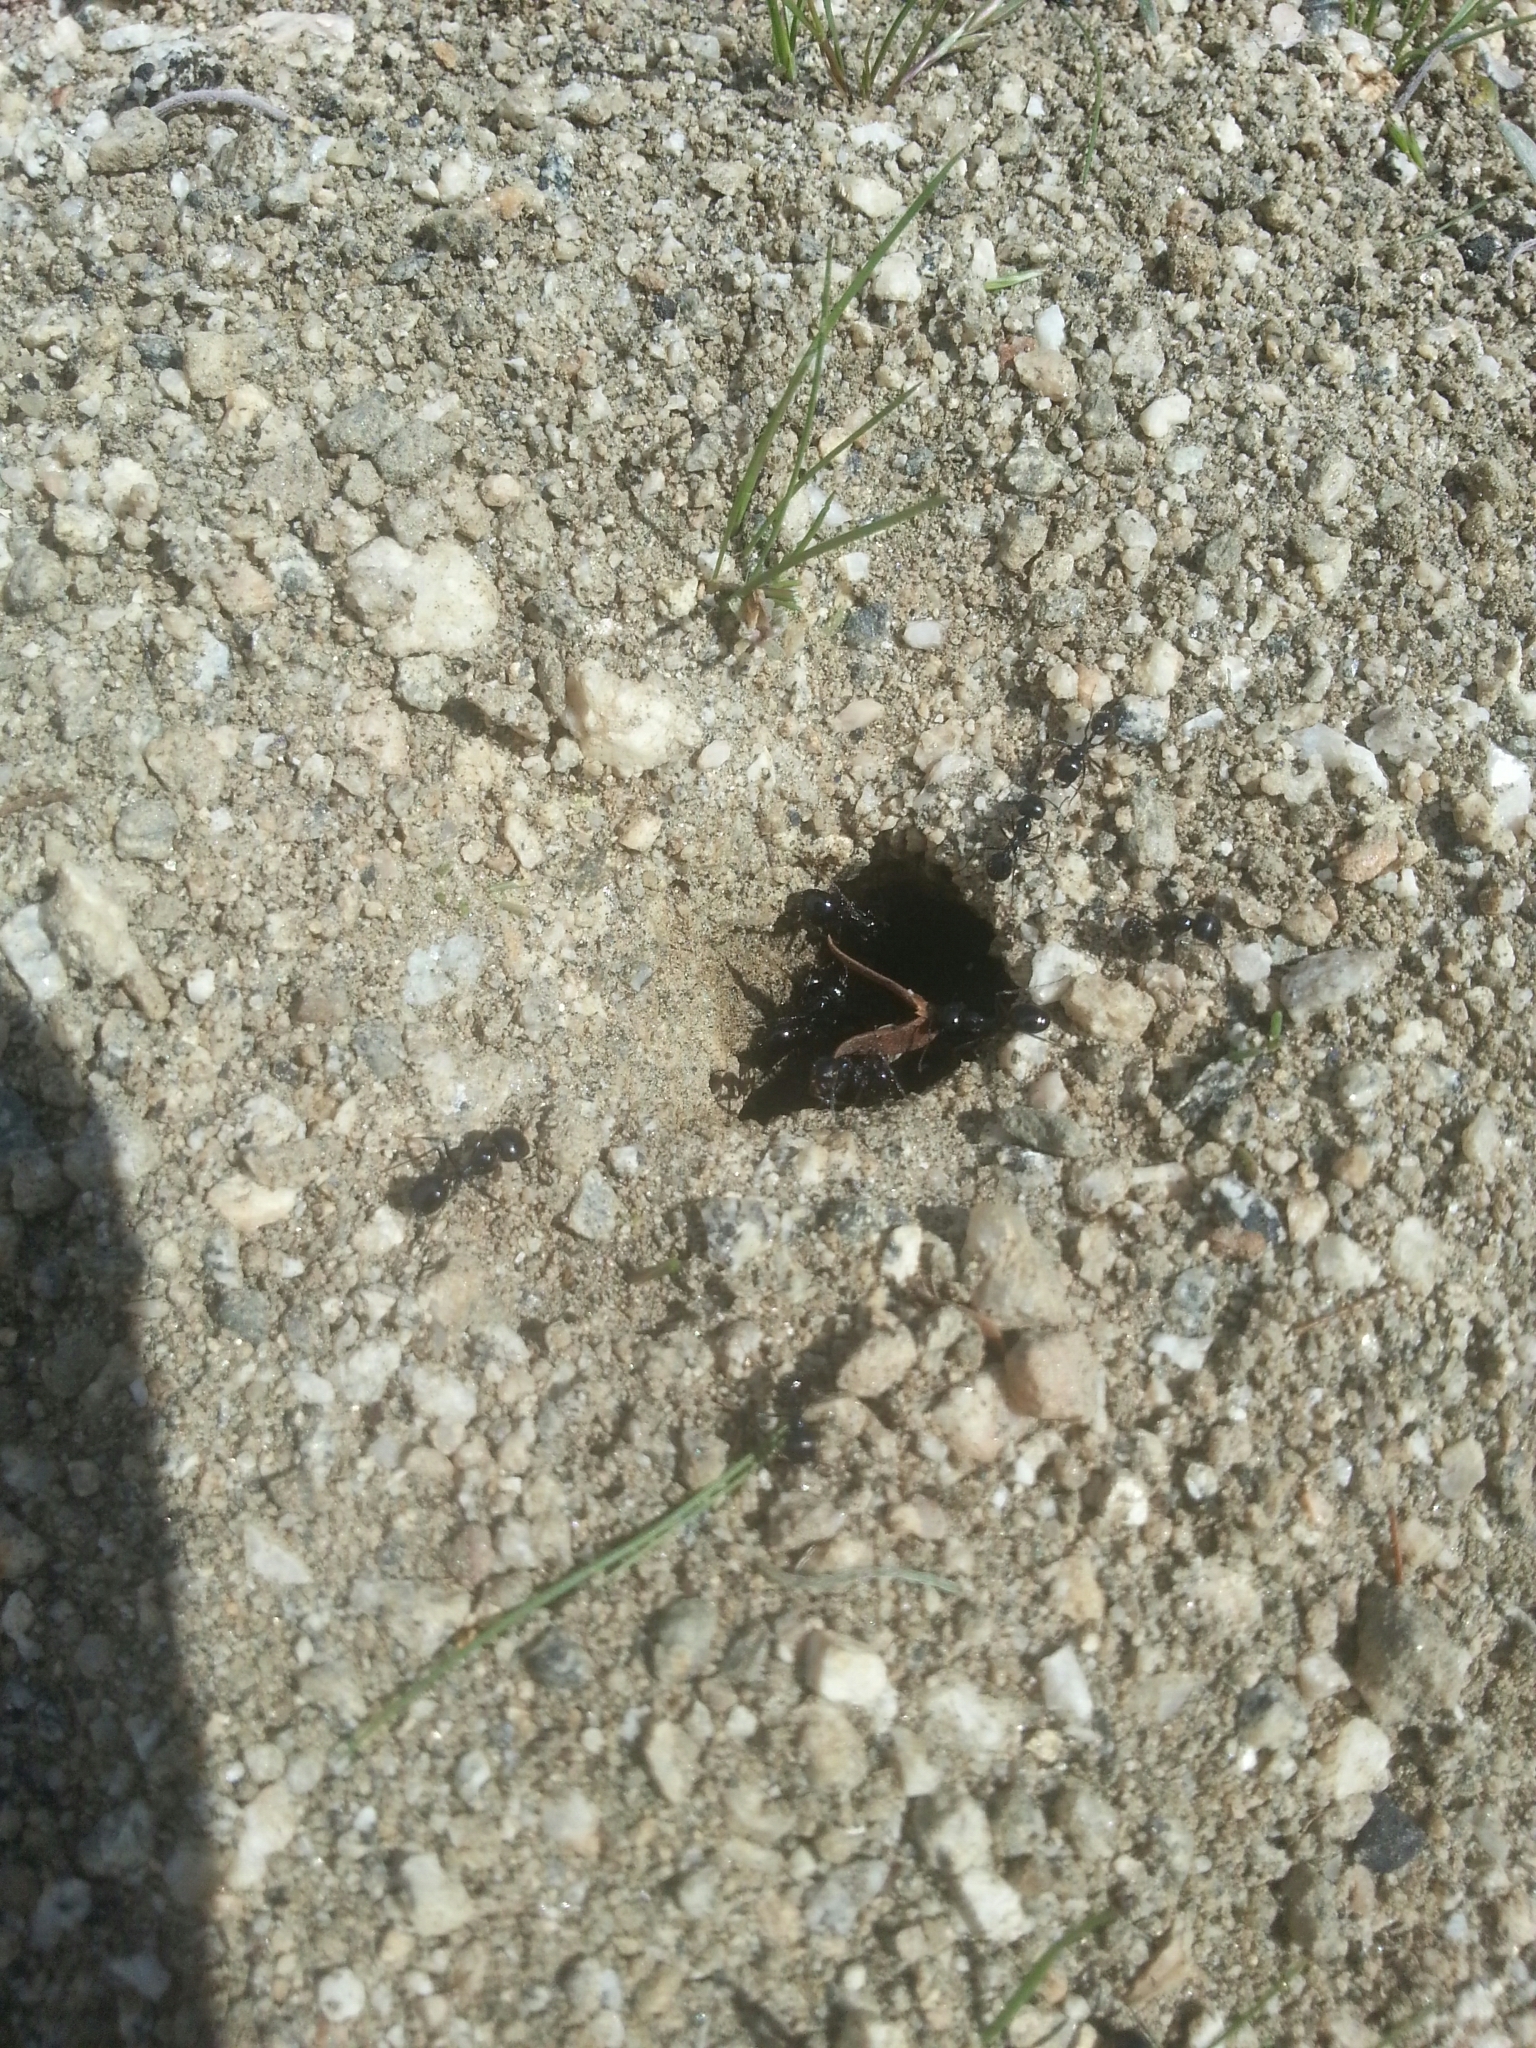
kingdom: Animalia
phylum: Arthropoda
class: Insecta
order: Hymenoptera
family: Formicidae
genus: Messor
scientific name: Messor pergandei
